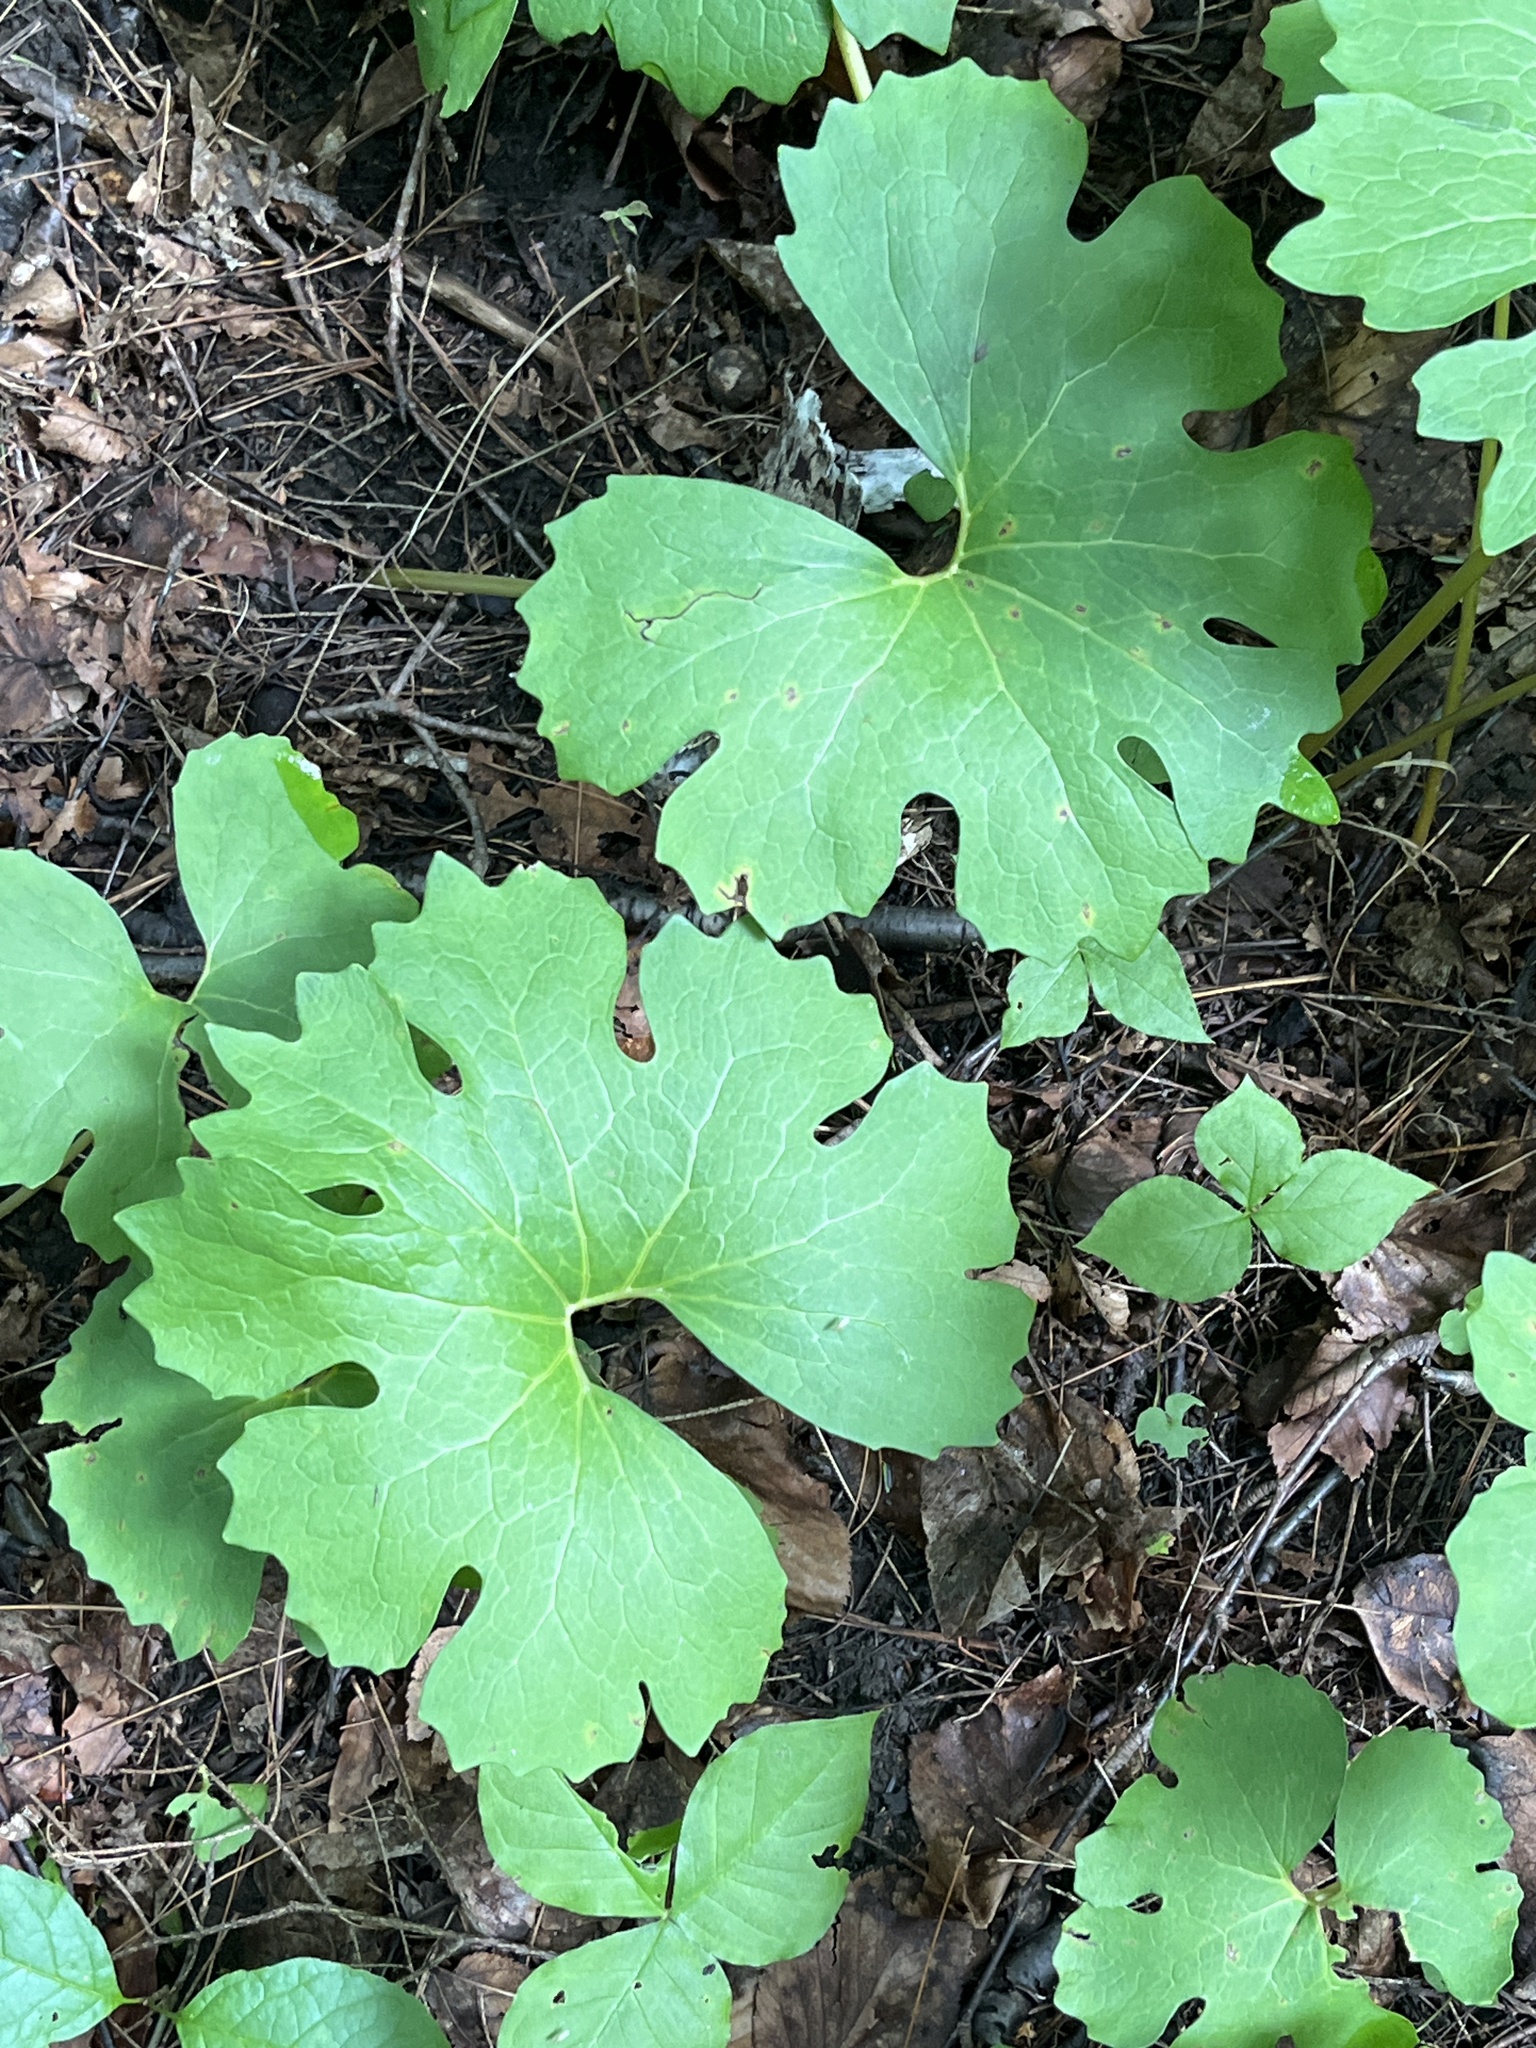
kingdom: Plantae
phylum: Tracheophyta
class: Magnoliopsida
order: Ranunculales
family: Papaveraceae
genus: Sanguinaria
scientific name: Sanguinaria canadensis
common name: Bloodroot
